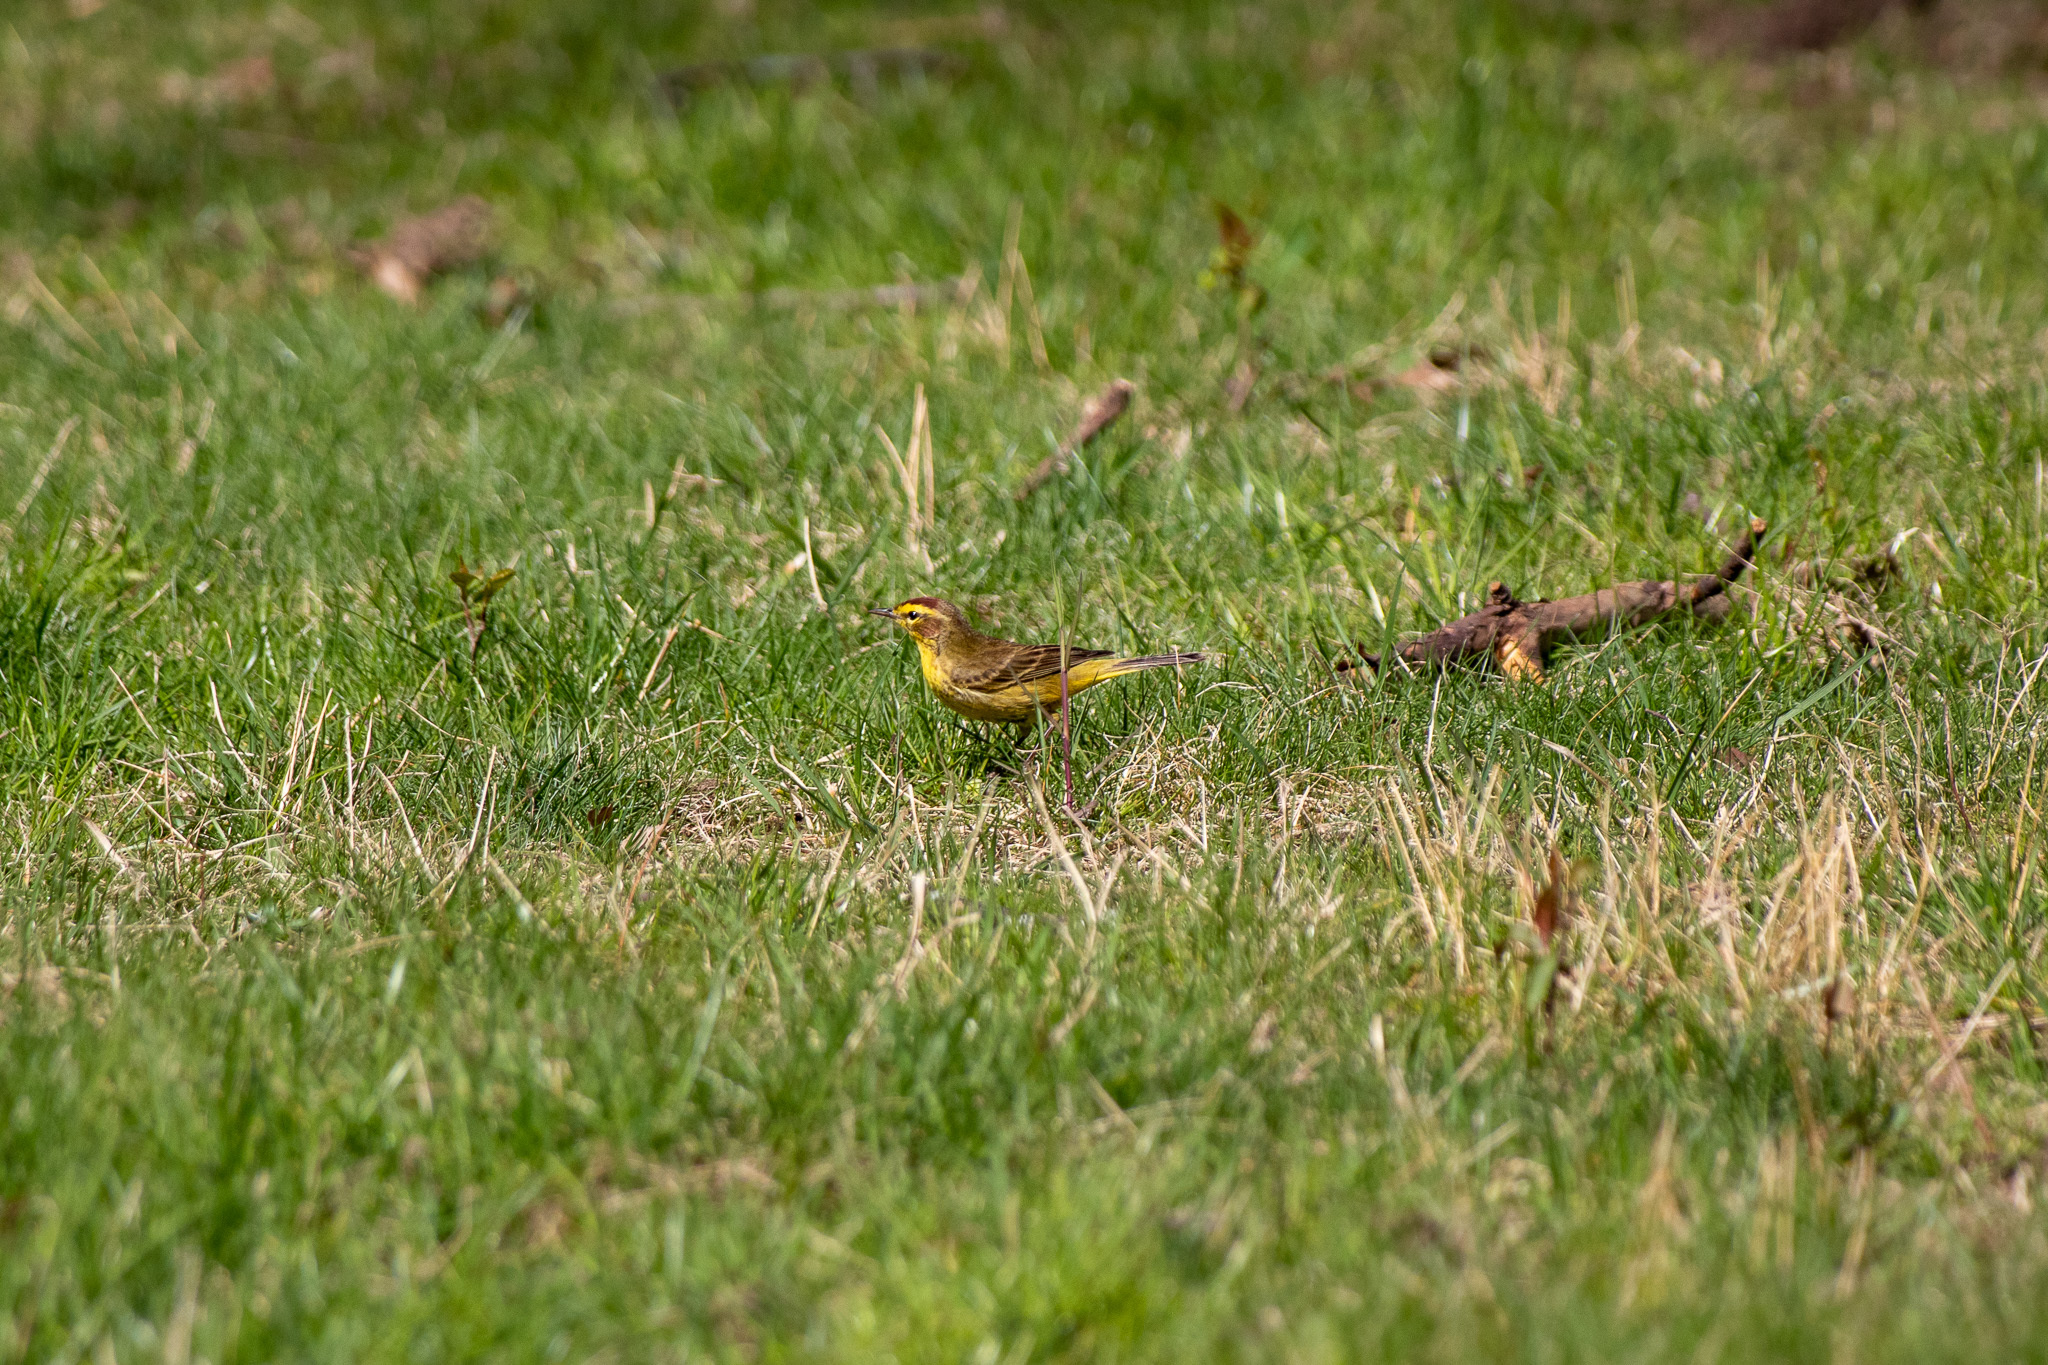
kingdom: Animalia
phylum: Chordata
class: Aves
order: Passeriformes
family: Parulidae
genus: Setophaga
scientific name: Setophaga palmarum
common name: Palm warbler
